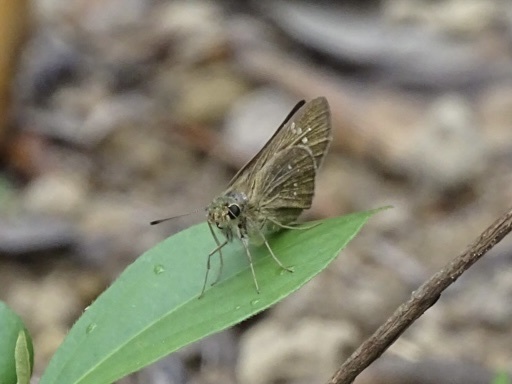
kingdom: Animalia
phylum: Arthropoda
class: Insecta
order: Lepidoptera
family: Hesperiidae
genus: Borbo
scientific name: Borbo cinnara
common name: Formosan swift
